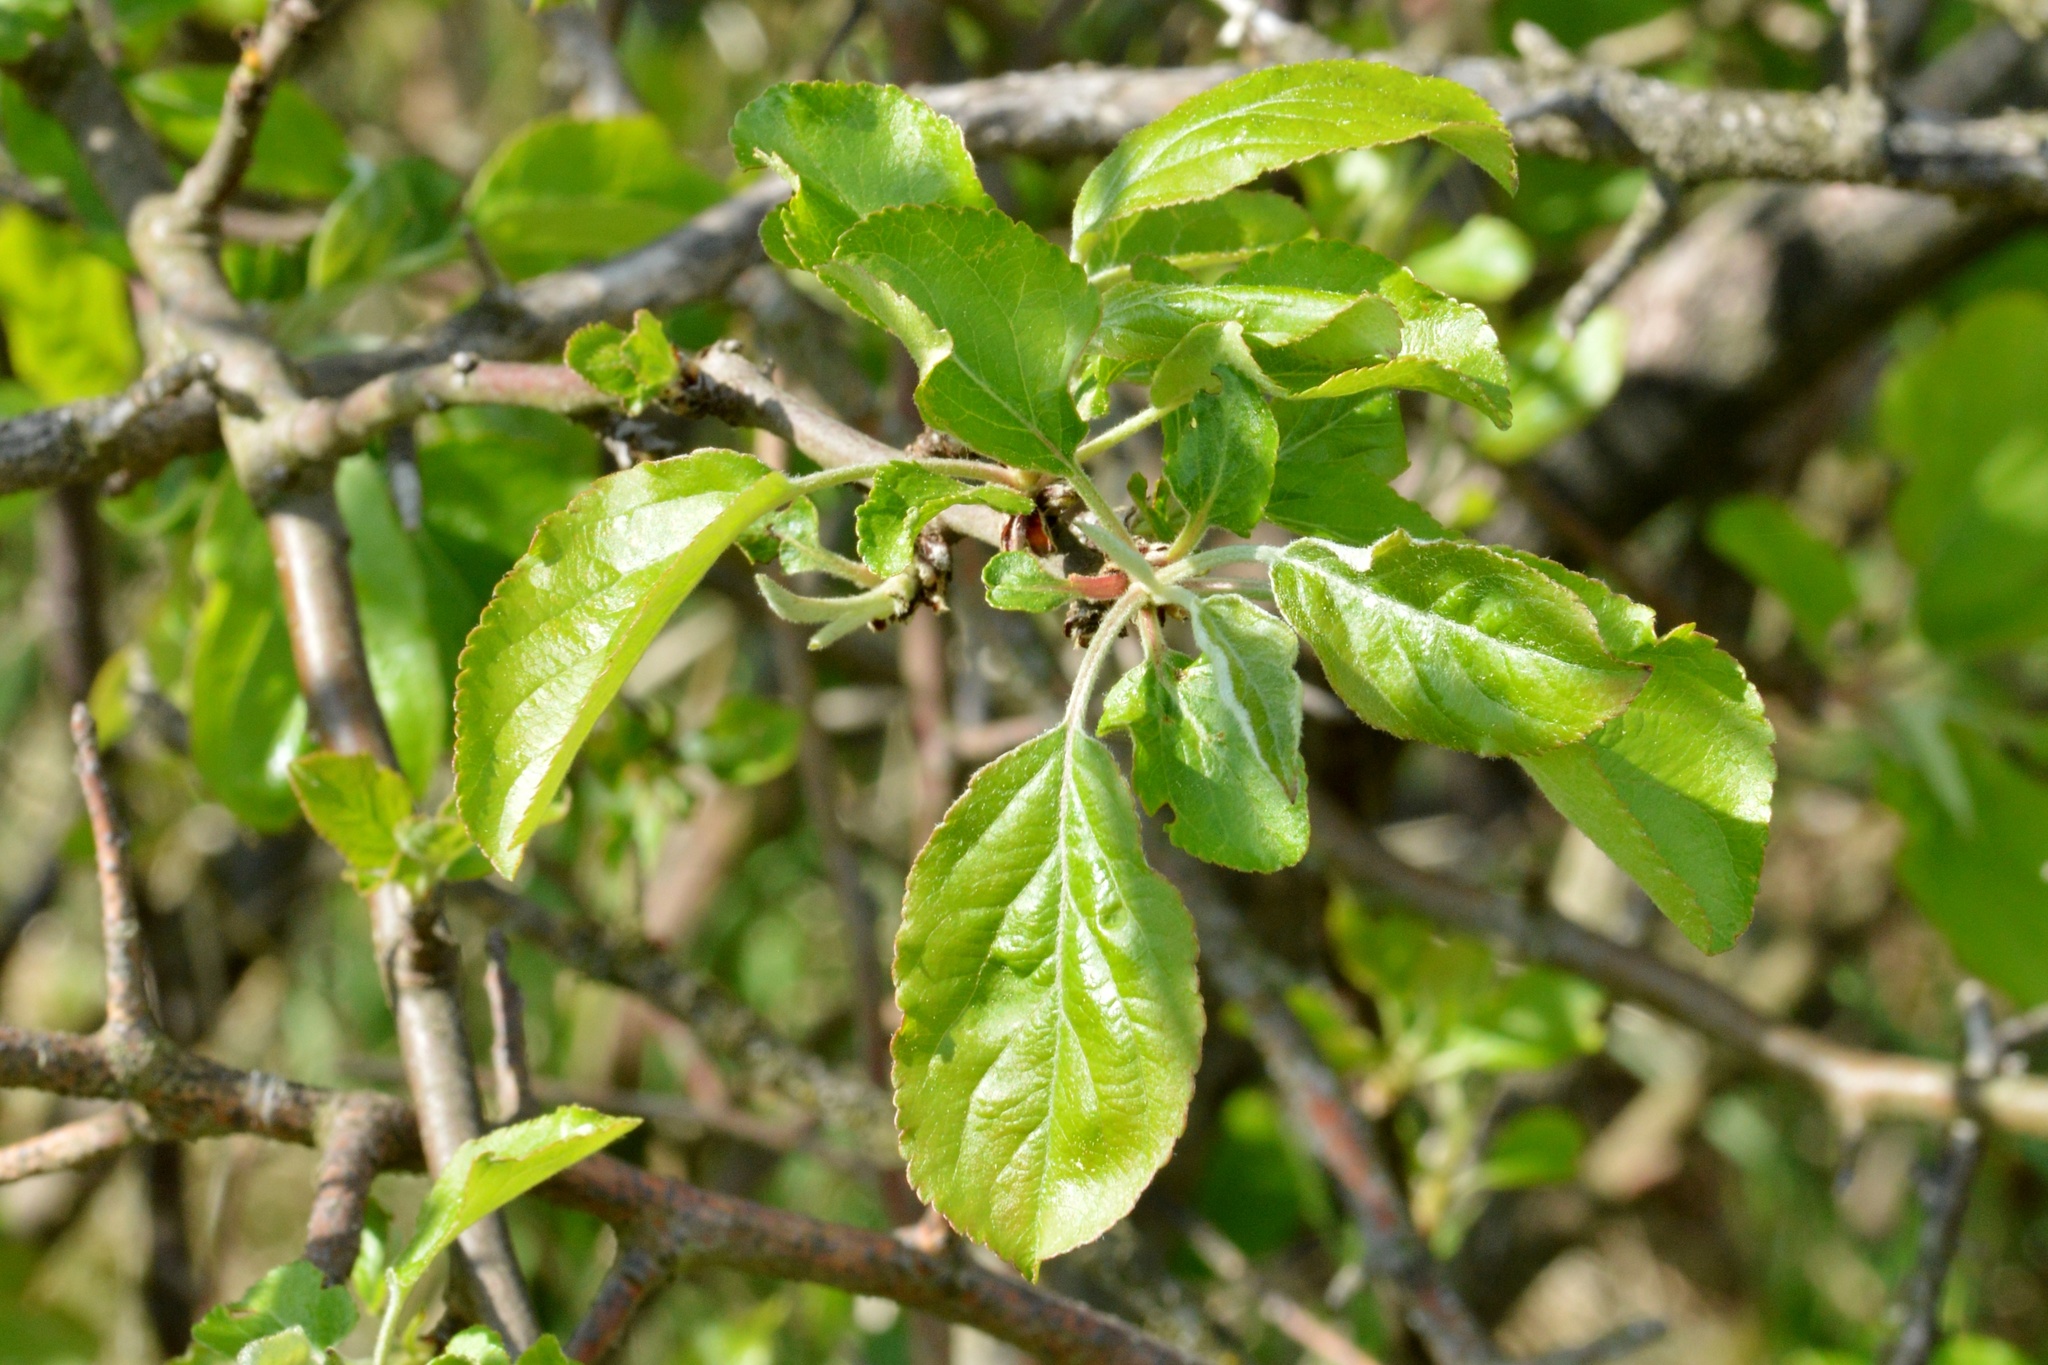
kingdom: Plantae
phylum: Tracheophyta
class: Magnoliopsida
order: Rosales
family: Rosaceae
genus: Malus
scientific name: Malus domestica
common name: Apple
